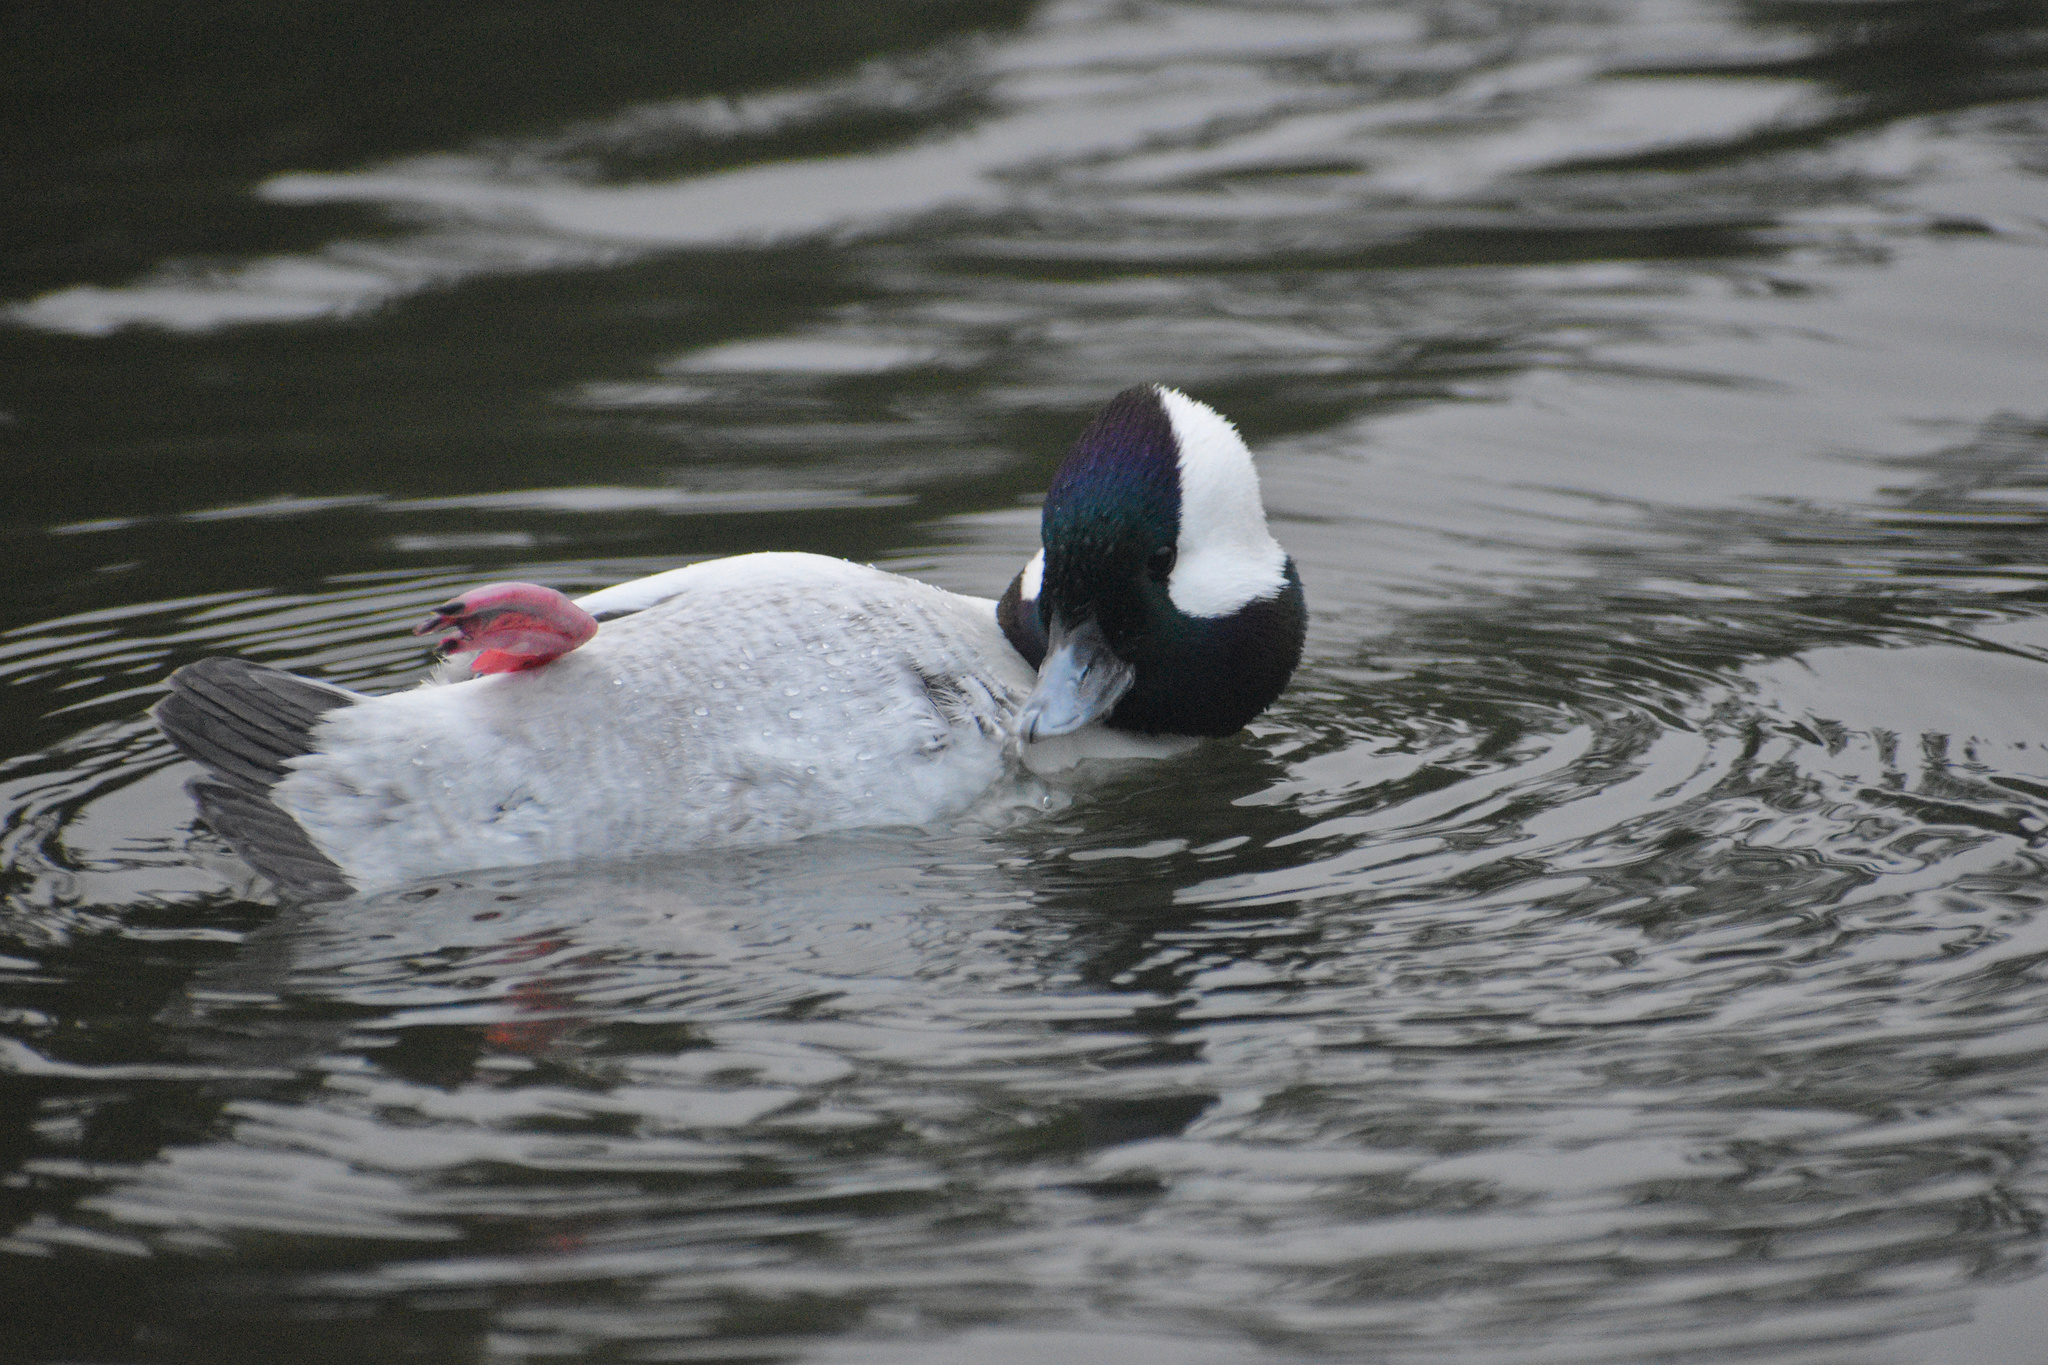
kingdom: Animalia
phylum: Chordata
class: Aves
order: Anseriformes
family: Anatidae
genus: Bucephala
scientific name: Bucephala albeola
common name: Bufflehead
